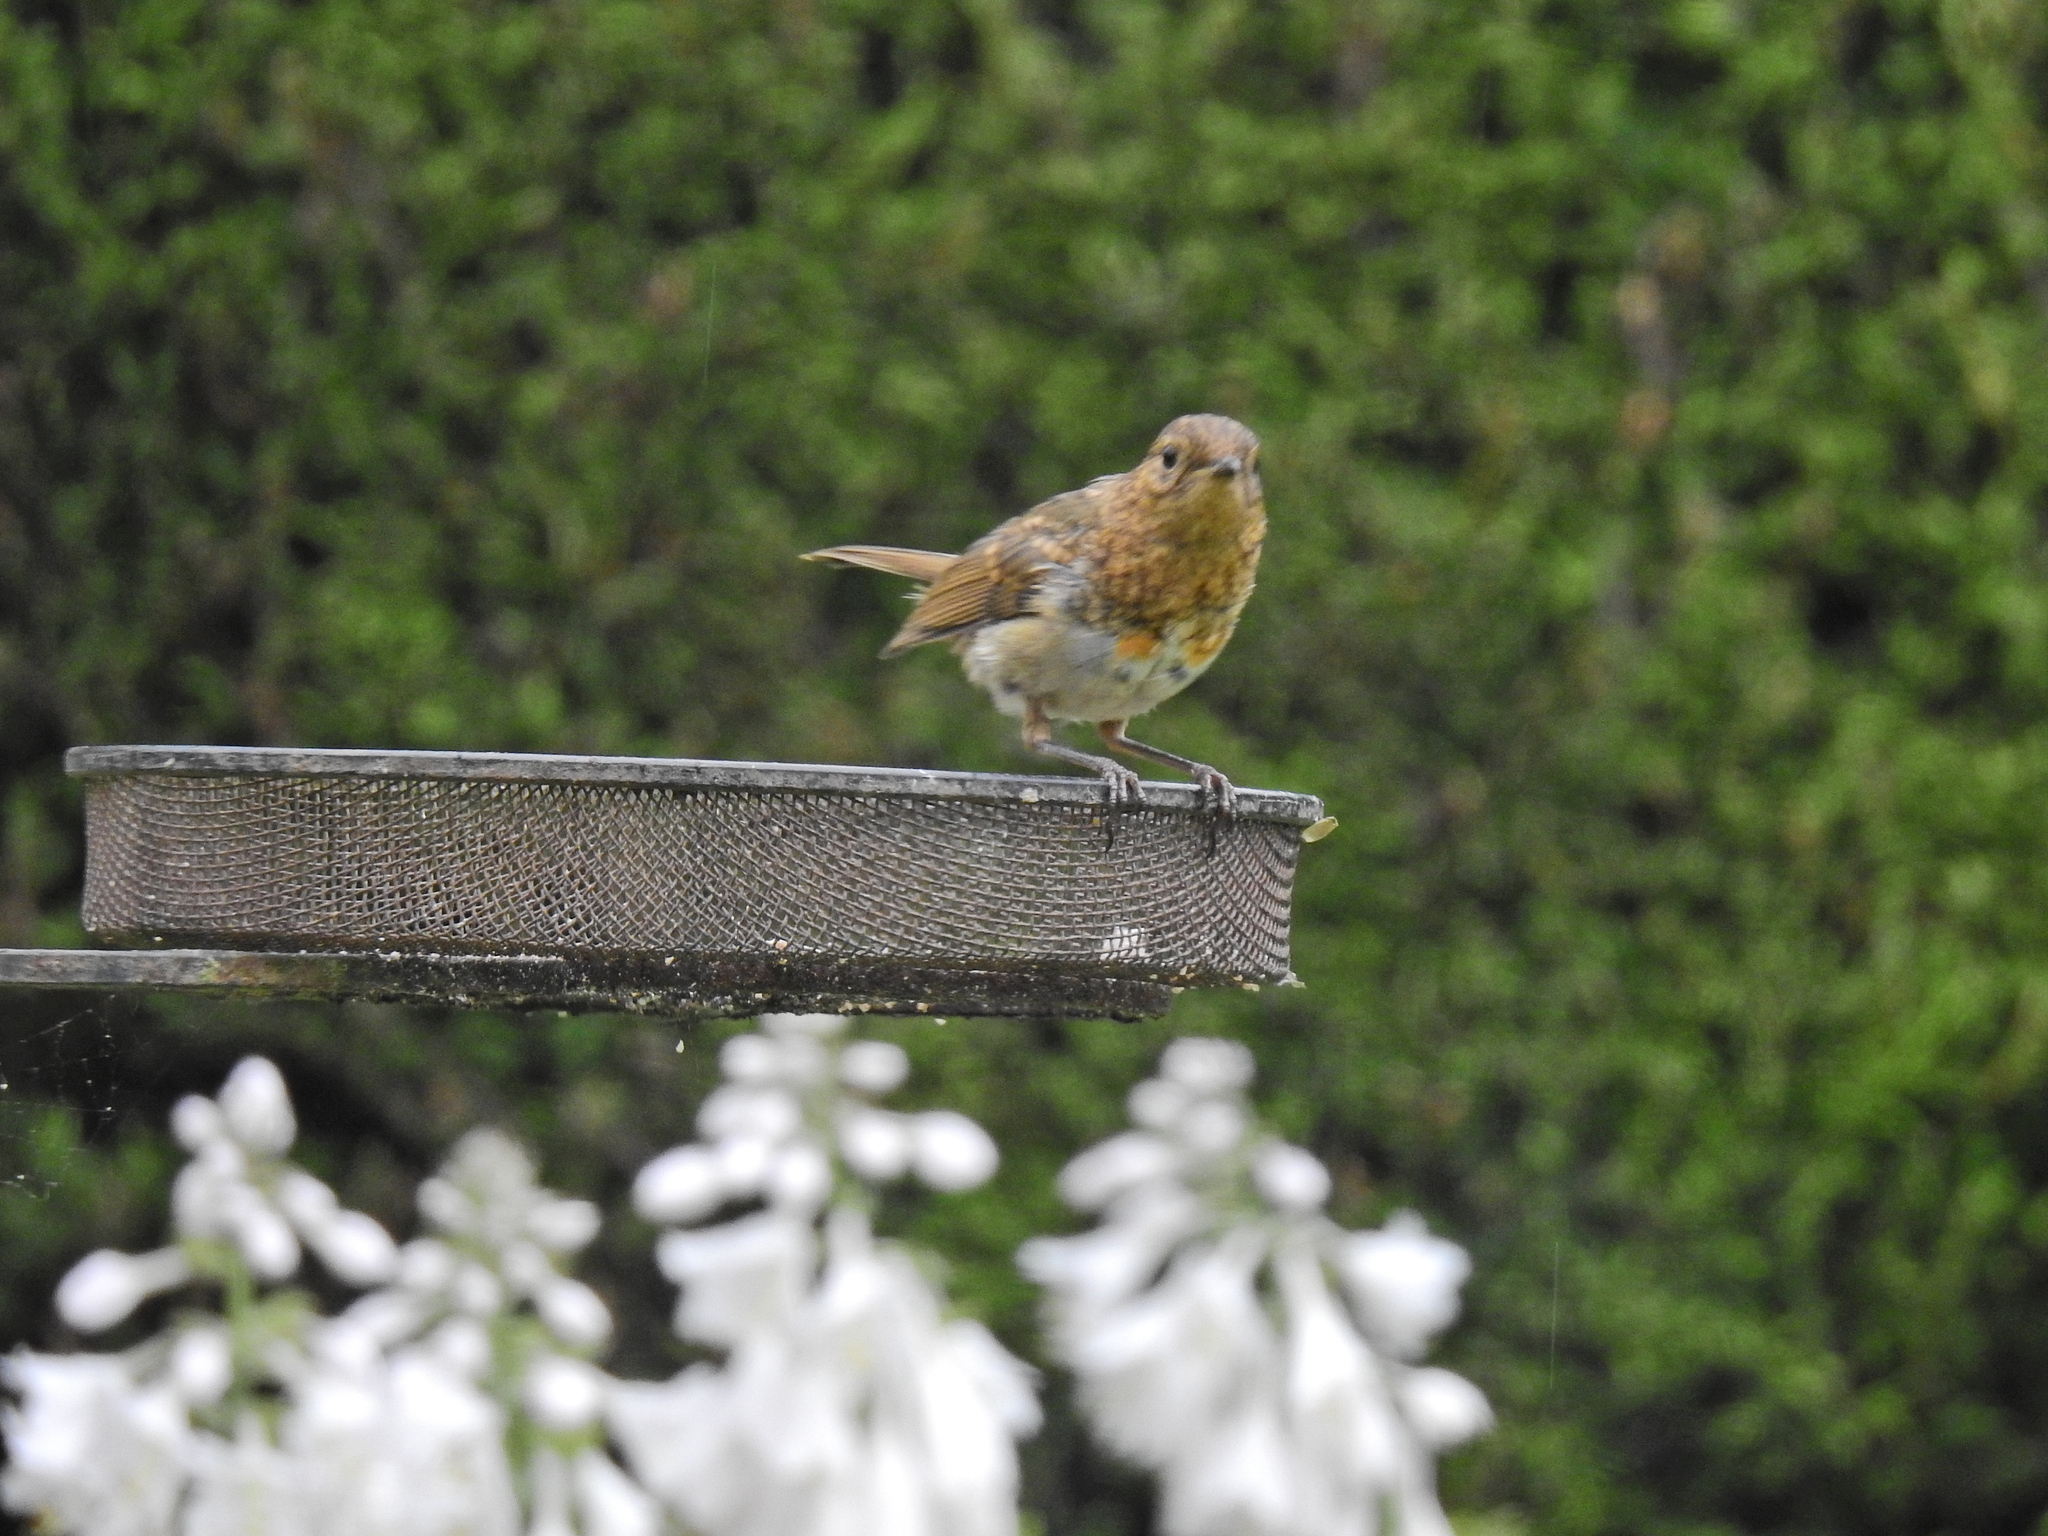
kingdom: Animalia
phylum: Chordata
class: Aves
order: Passeriformes
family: Muscicapidae
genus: Erithacus
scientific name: Erithacus rubecula
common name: European robin
